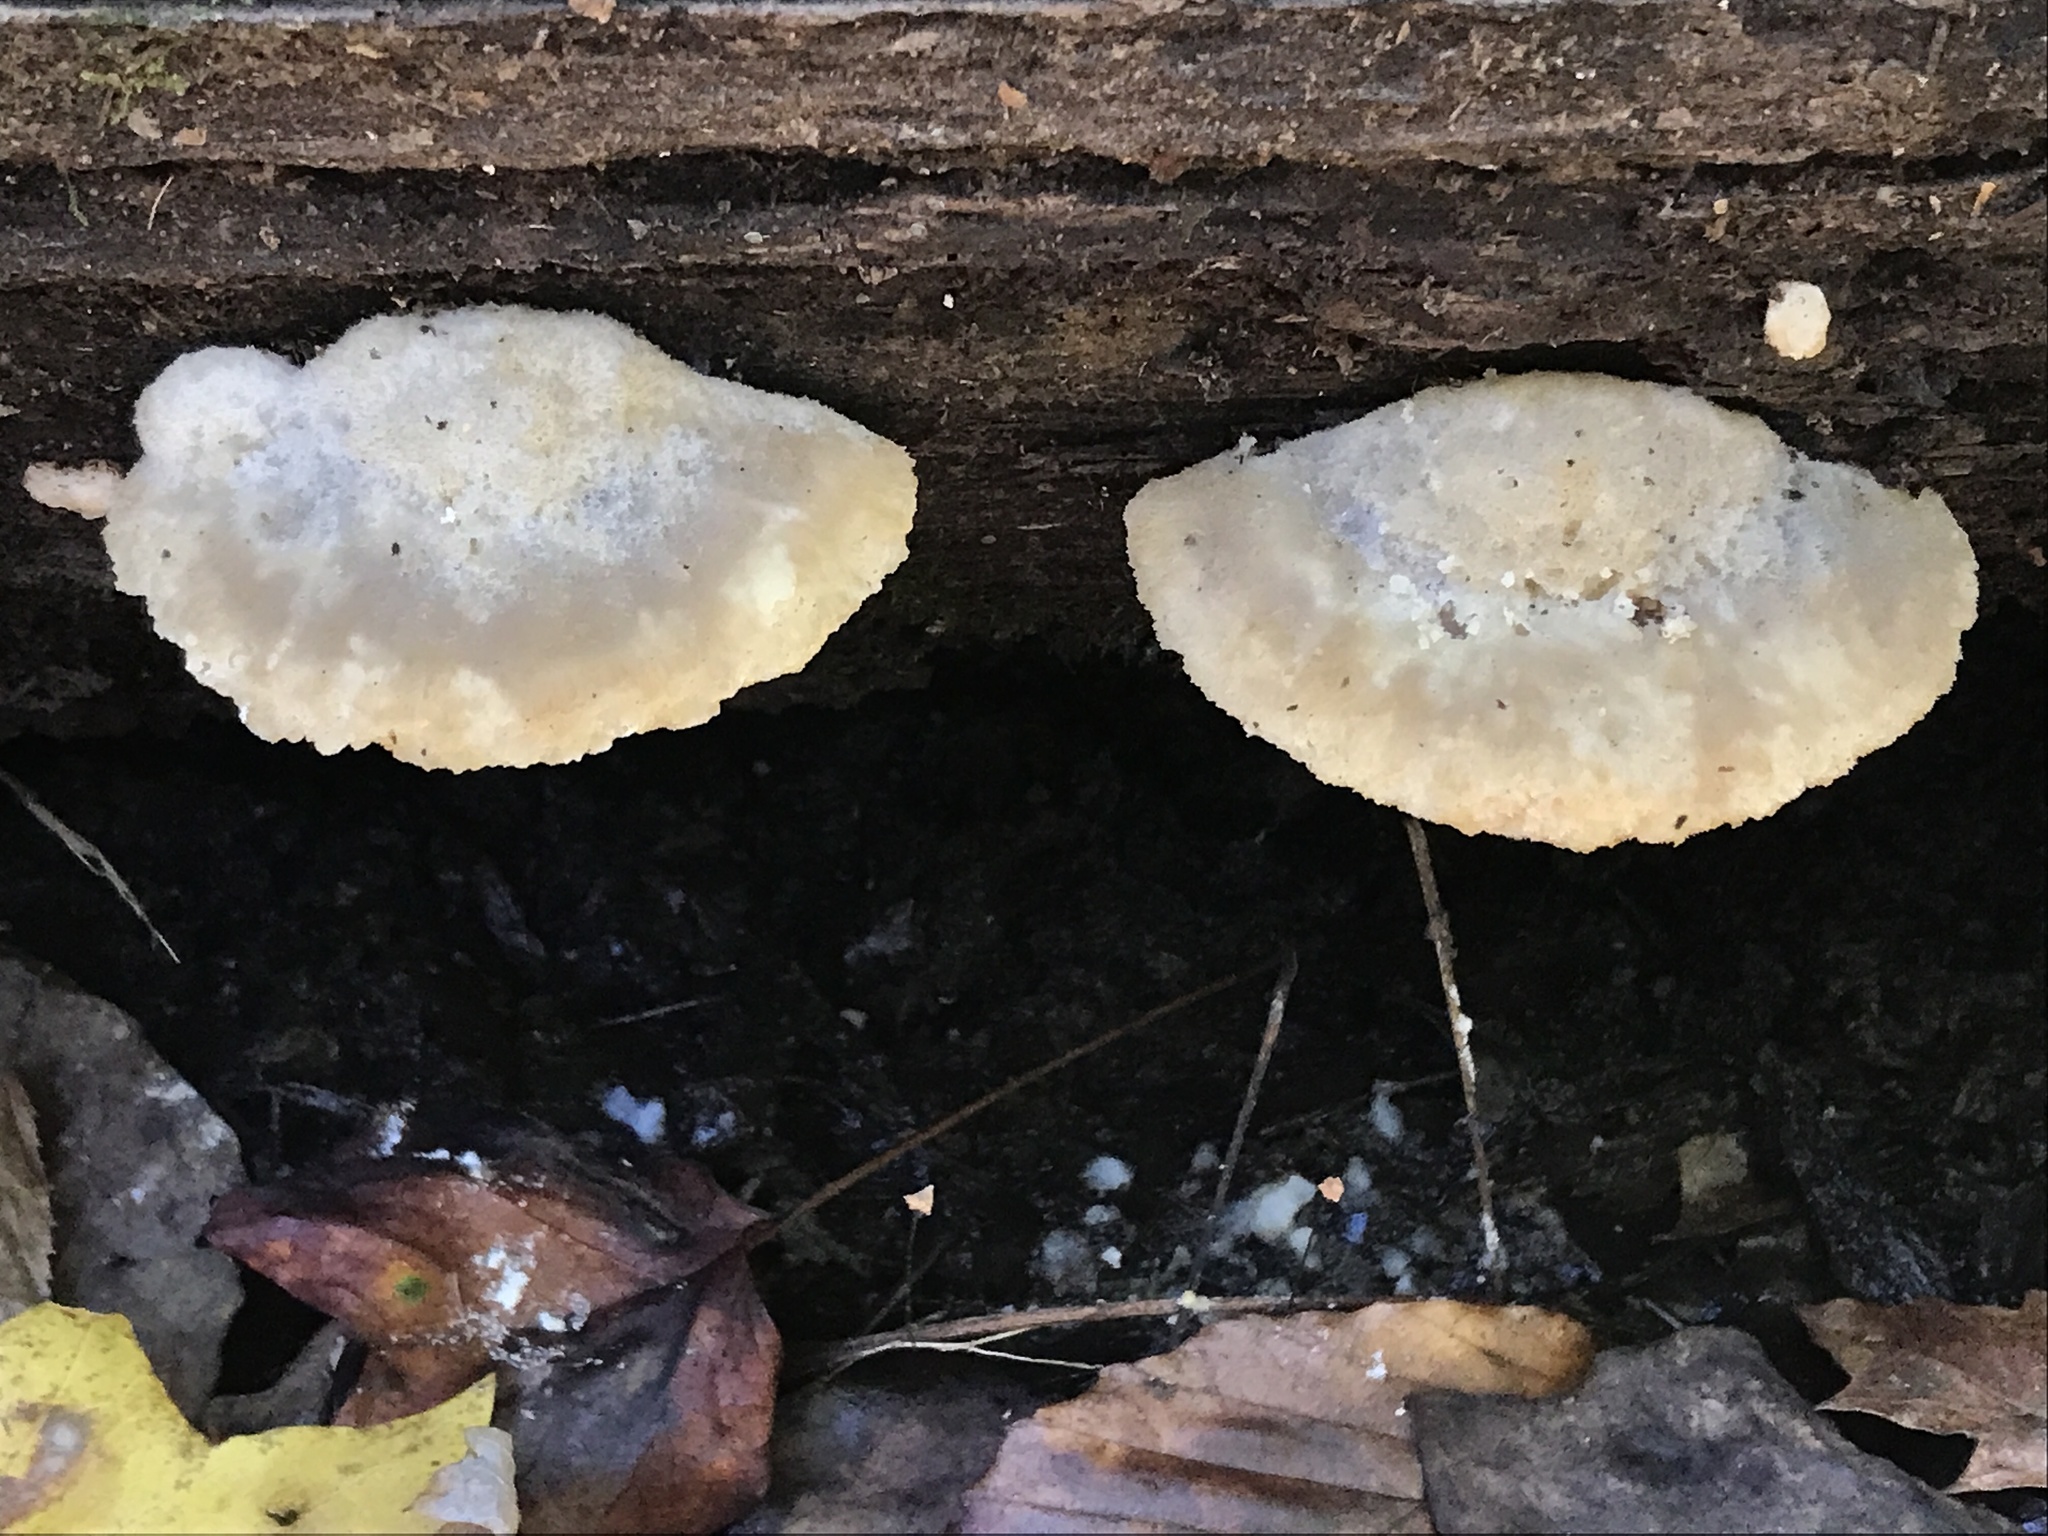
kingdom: Fungi
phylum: Basidiomycota
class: Agaricomycetes
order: Polyporales
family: Fomitopsidaceae
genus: Niveoporofomes
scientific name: Niveoporofomes spraguei
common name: Green cheese polypore
